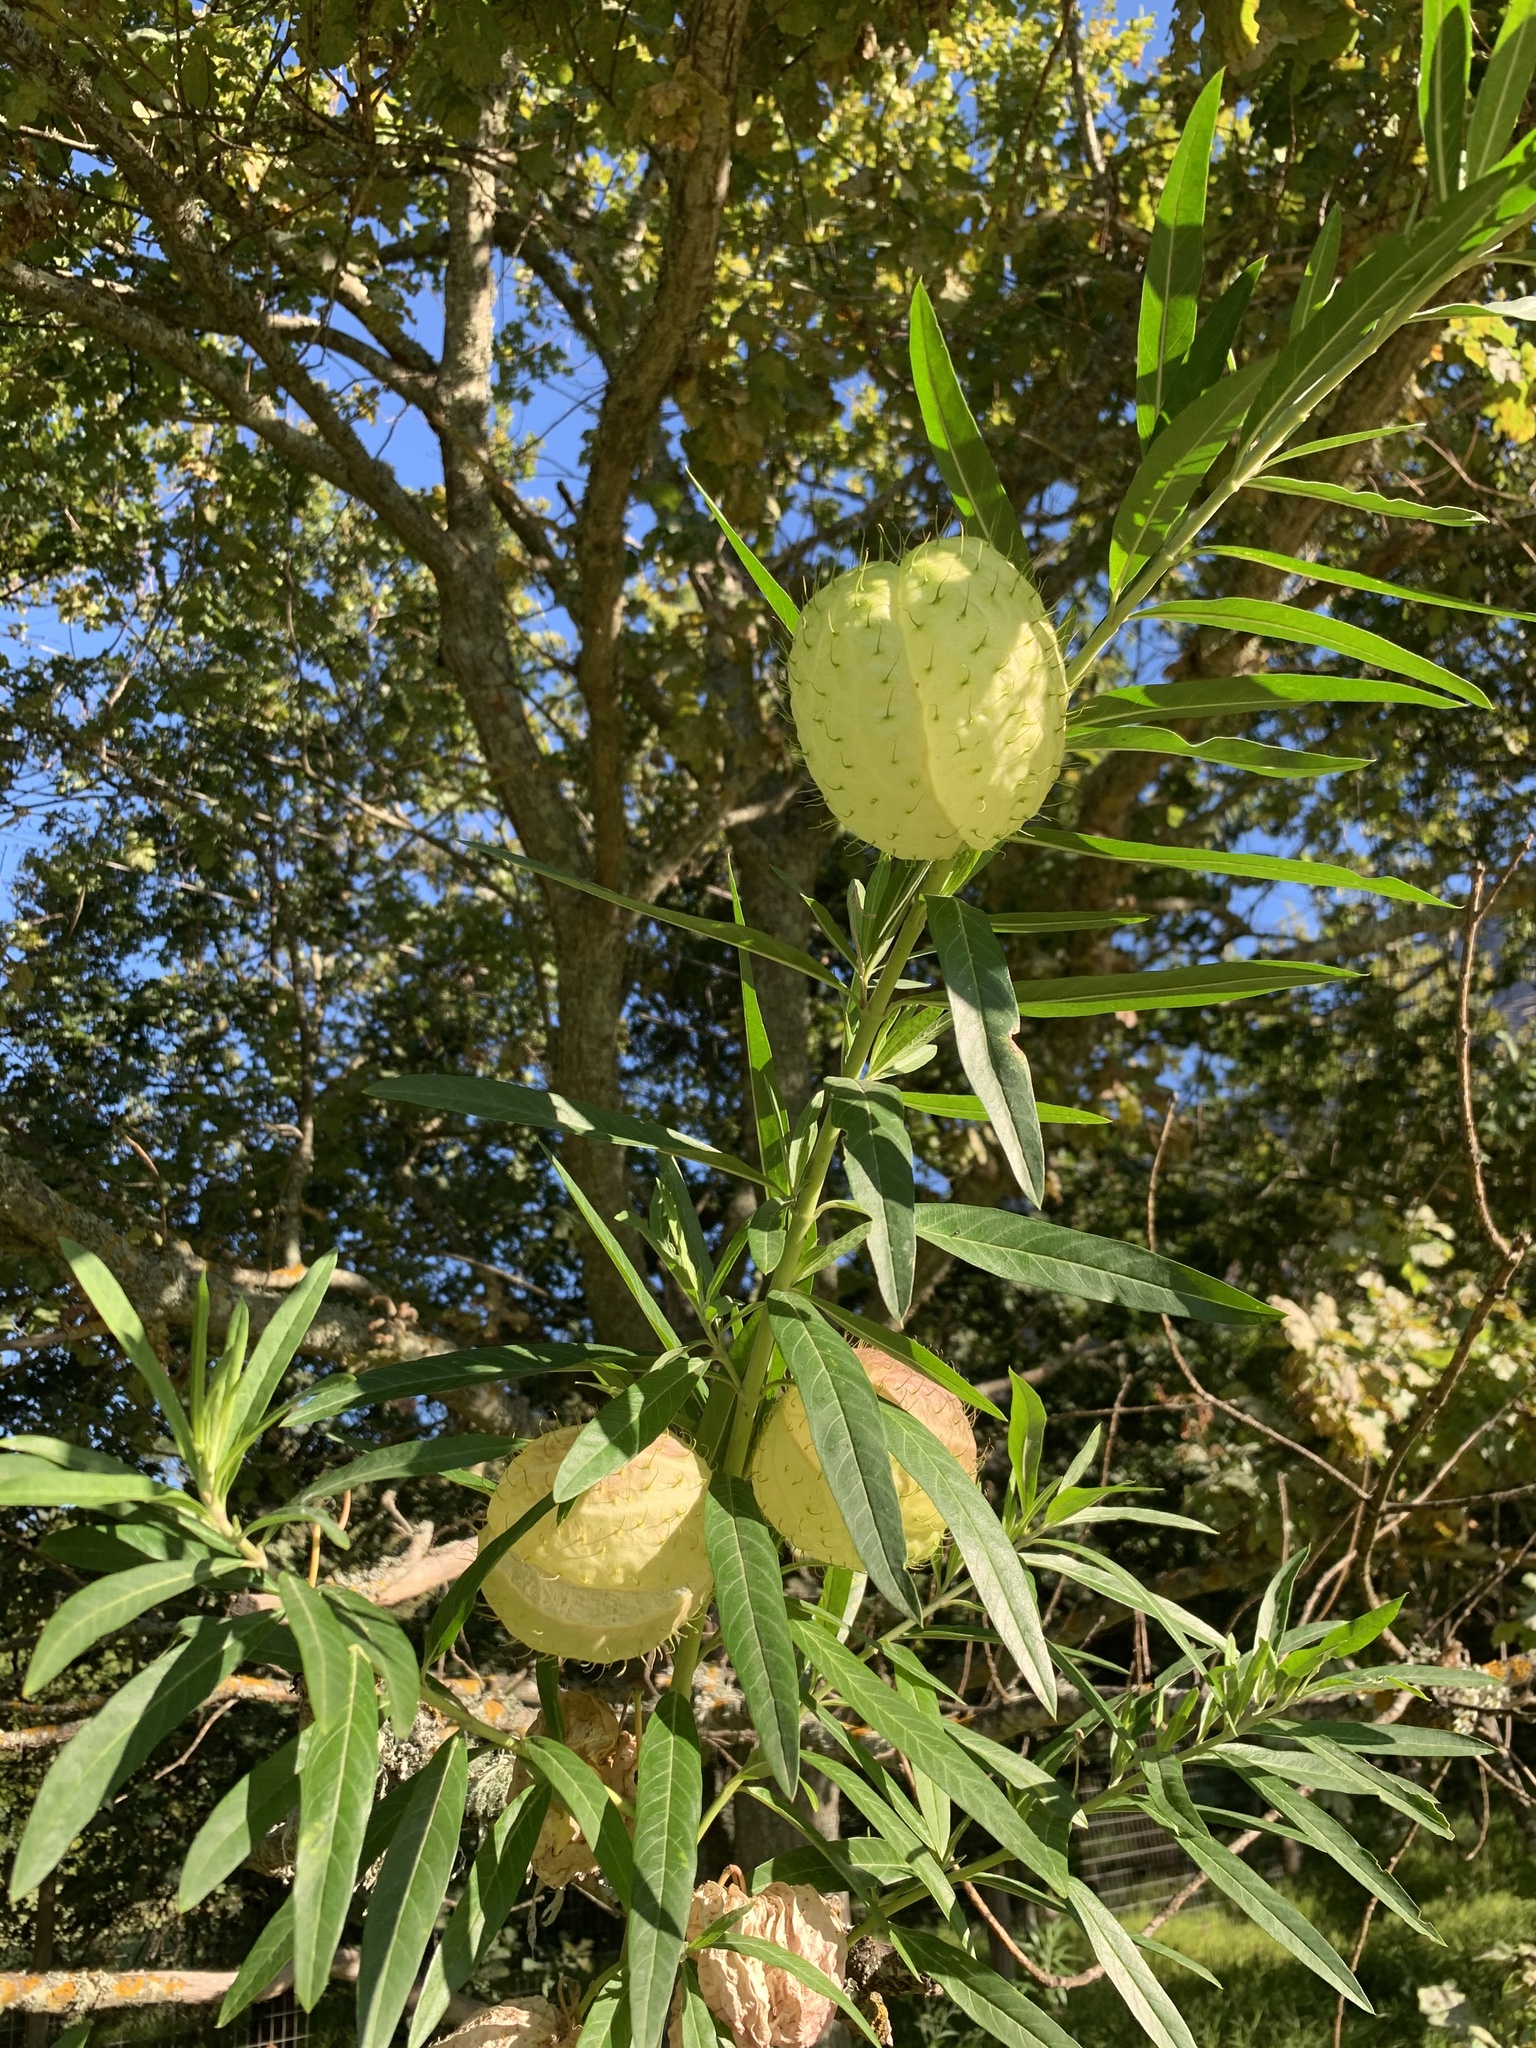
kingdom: Plantae
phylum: Tracheophyta
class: Magnoliopsida
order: Gentianales
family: Apocynaceae
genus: Gomphocarpus
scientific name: Gomphocarpus physocarpus
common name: Balloon cotton bush
